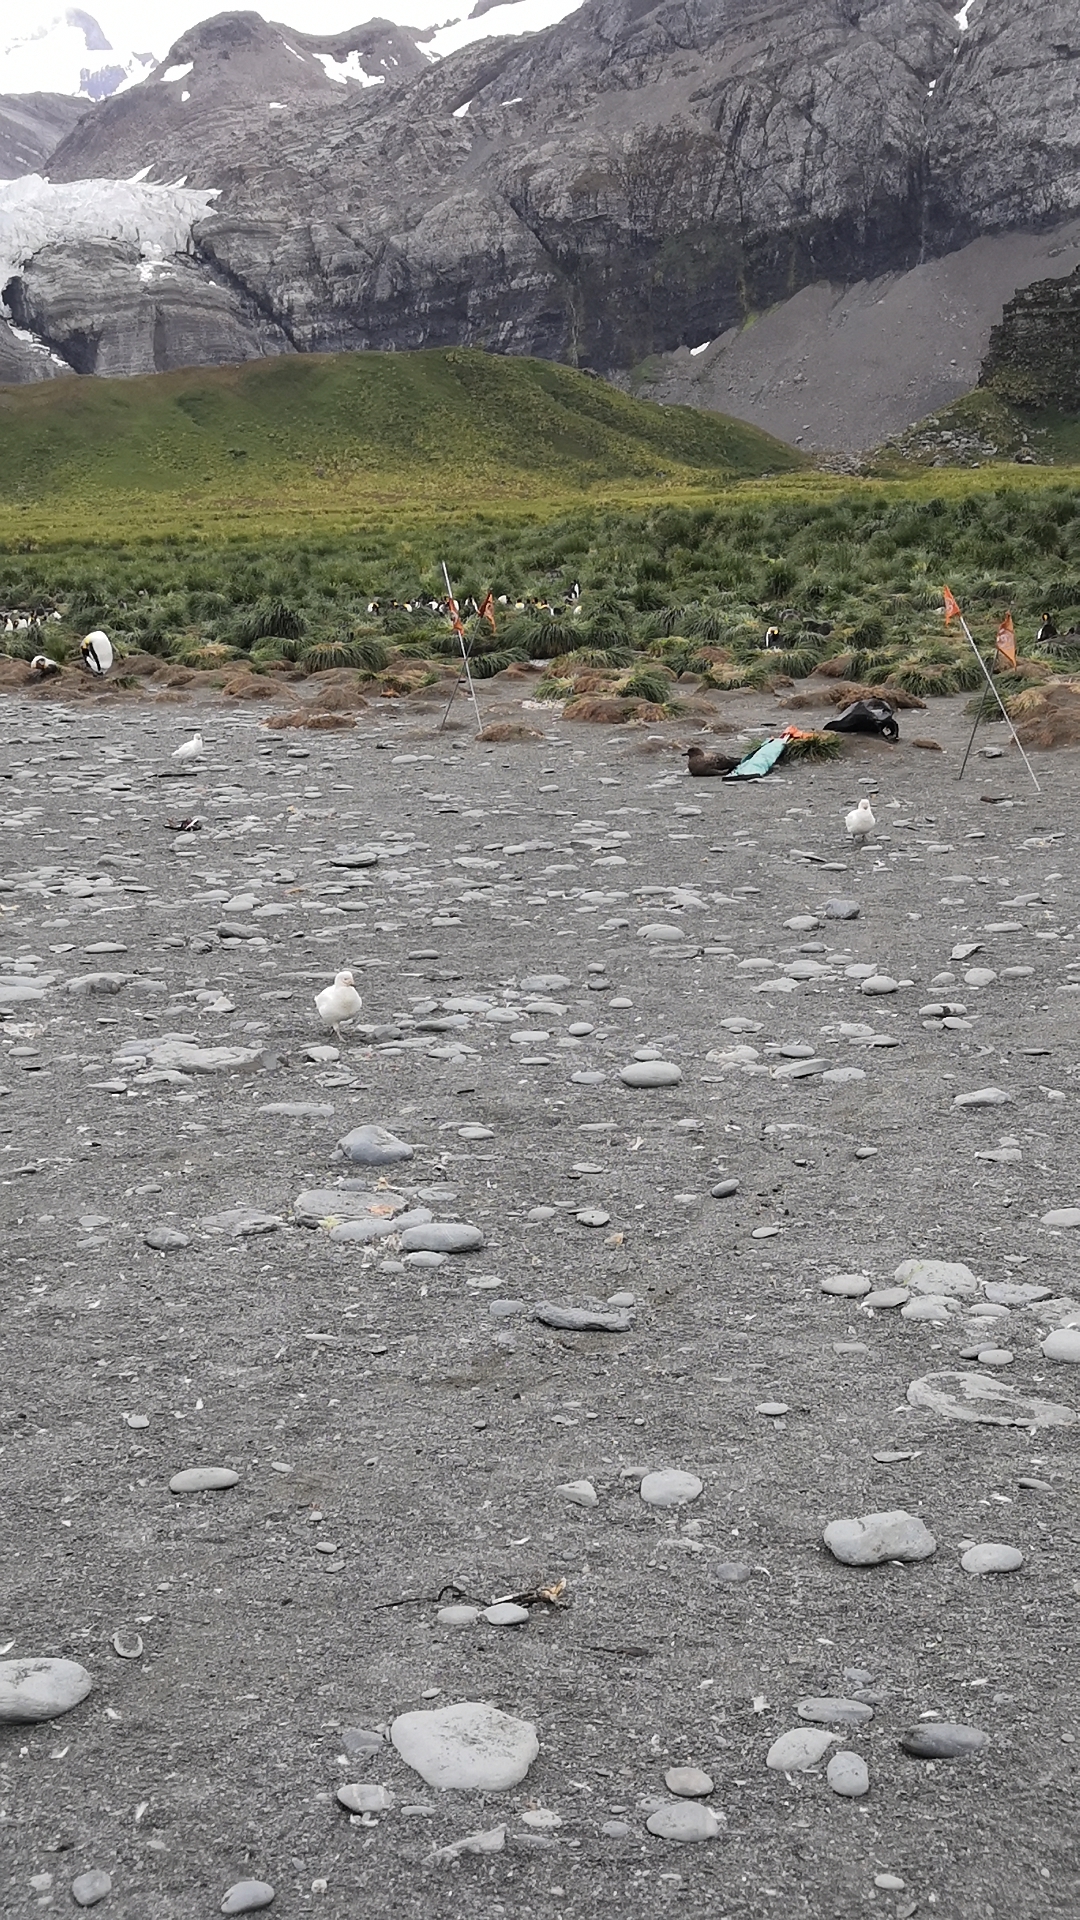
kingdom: Animalia
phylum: Chordata
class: Aves
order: Charadriiformes
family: Chionidae
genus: Chionis
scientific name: Chionis albus
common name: Snowy sheathbill
